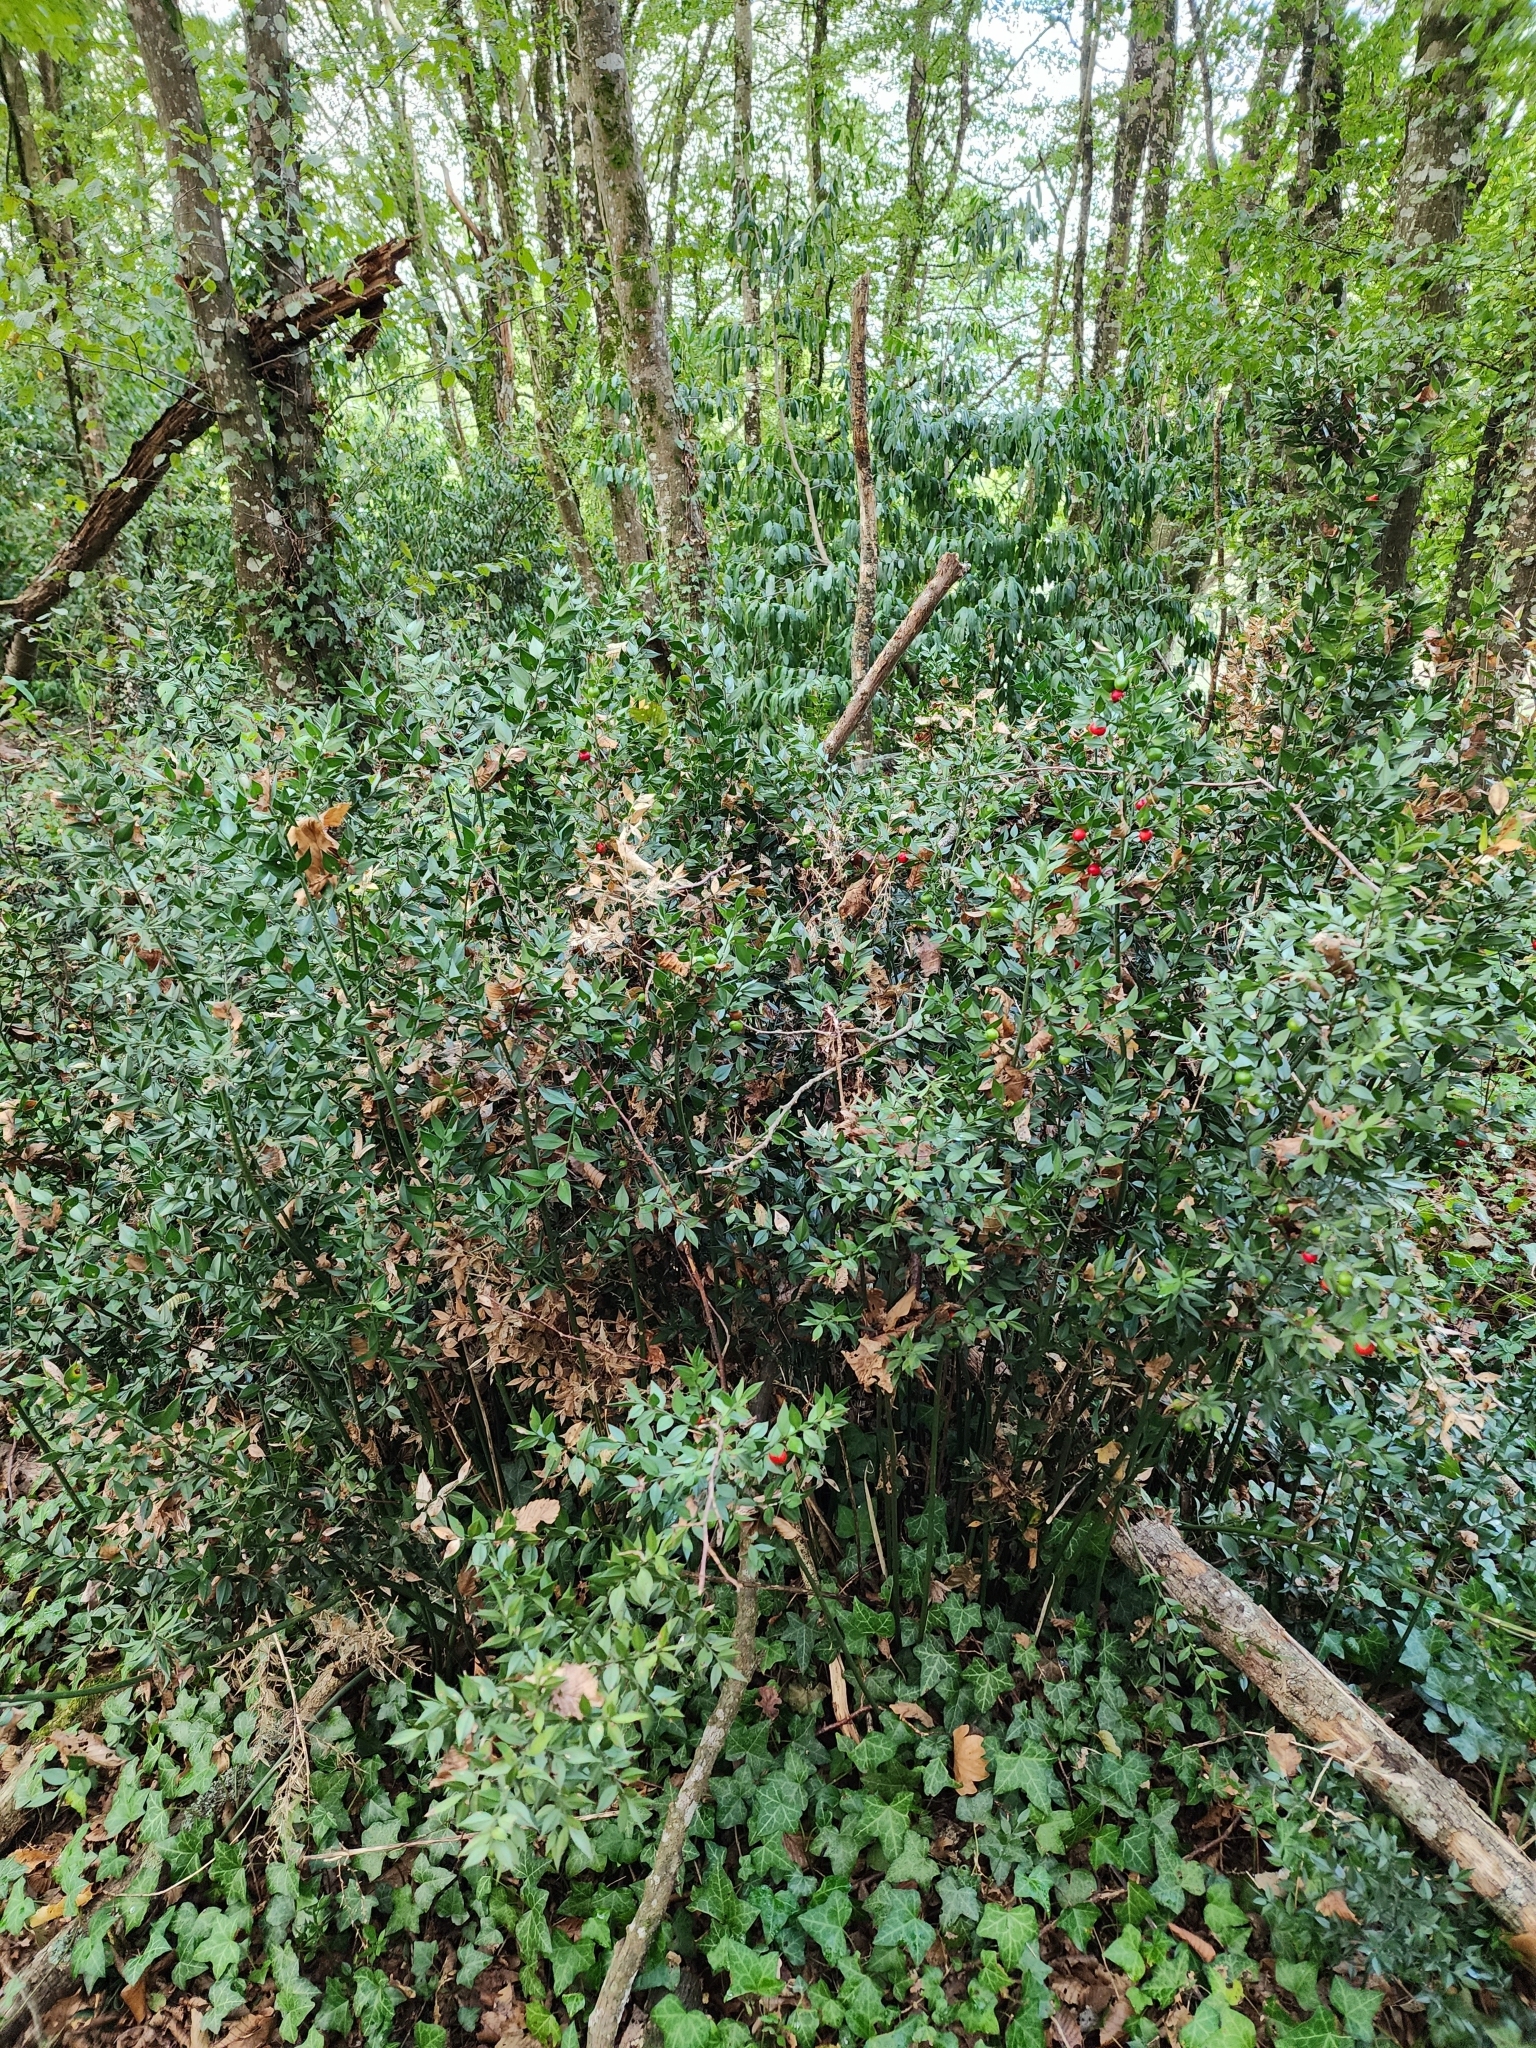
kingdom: Plantae
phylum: Tracheophyta
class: Liliopsida
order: Asparagales
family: Asparagaceae
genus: Ruscus
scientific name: Ruscus aculeatus
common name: Butcher's-broom
